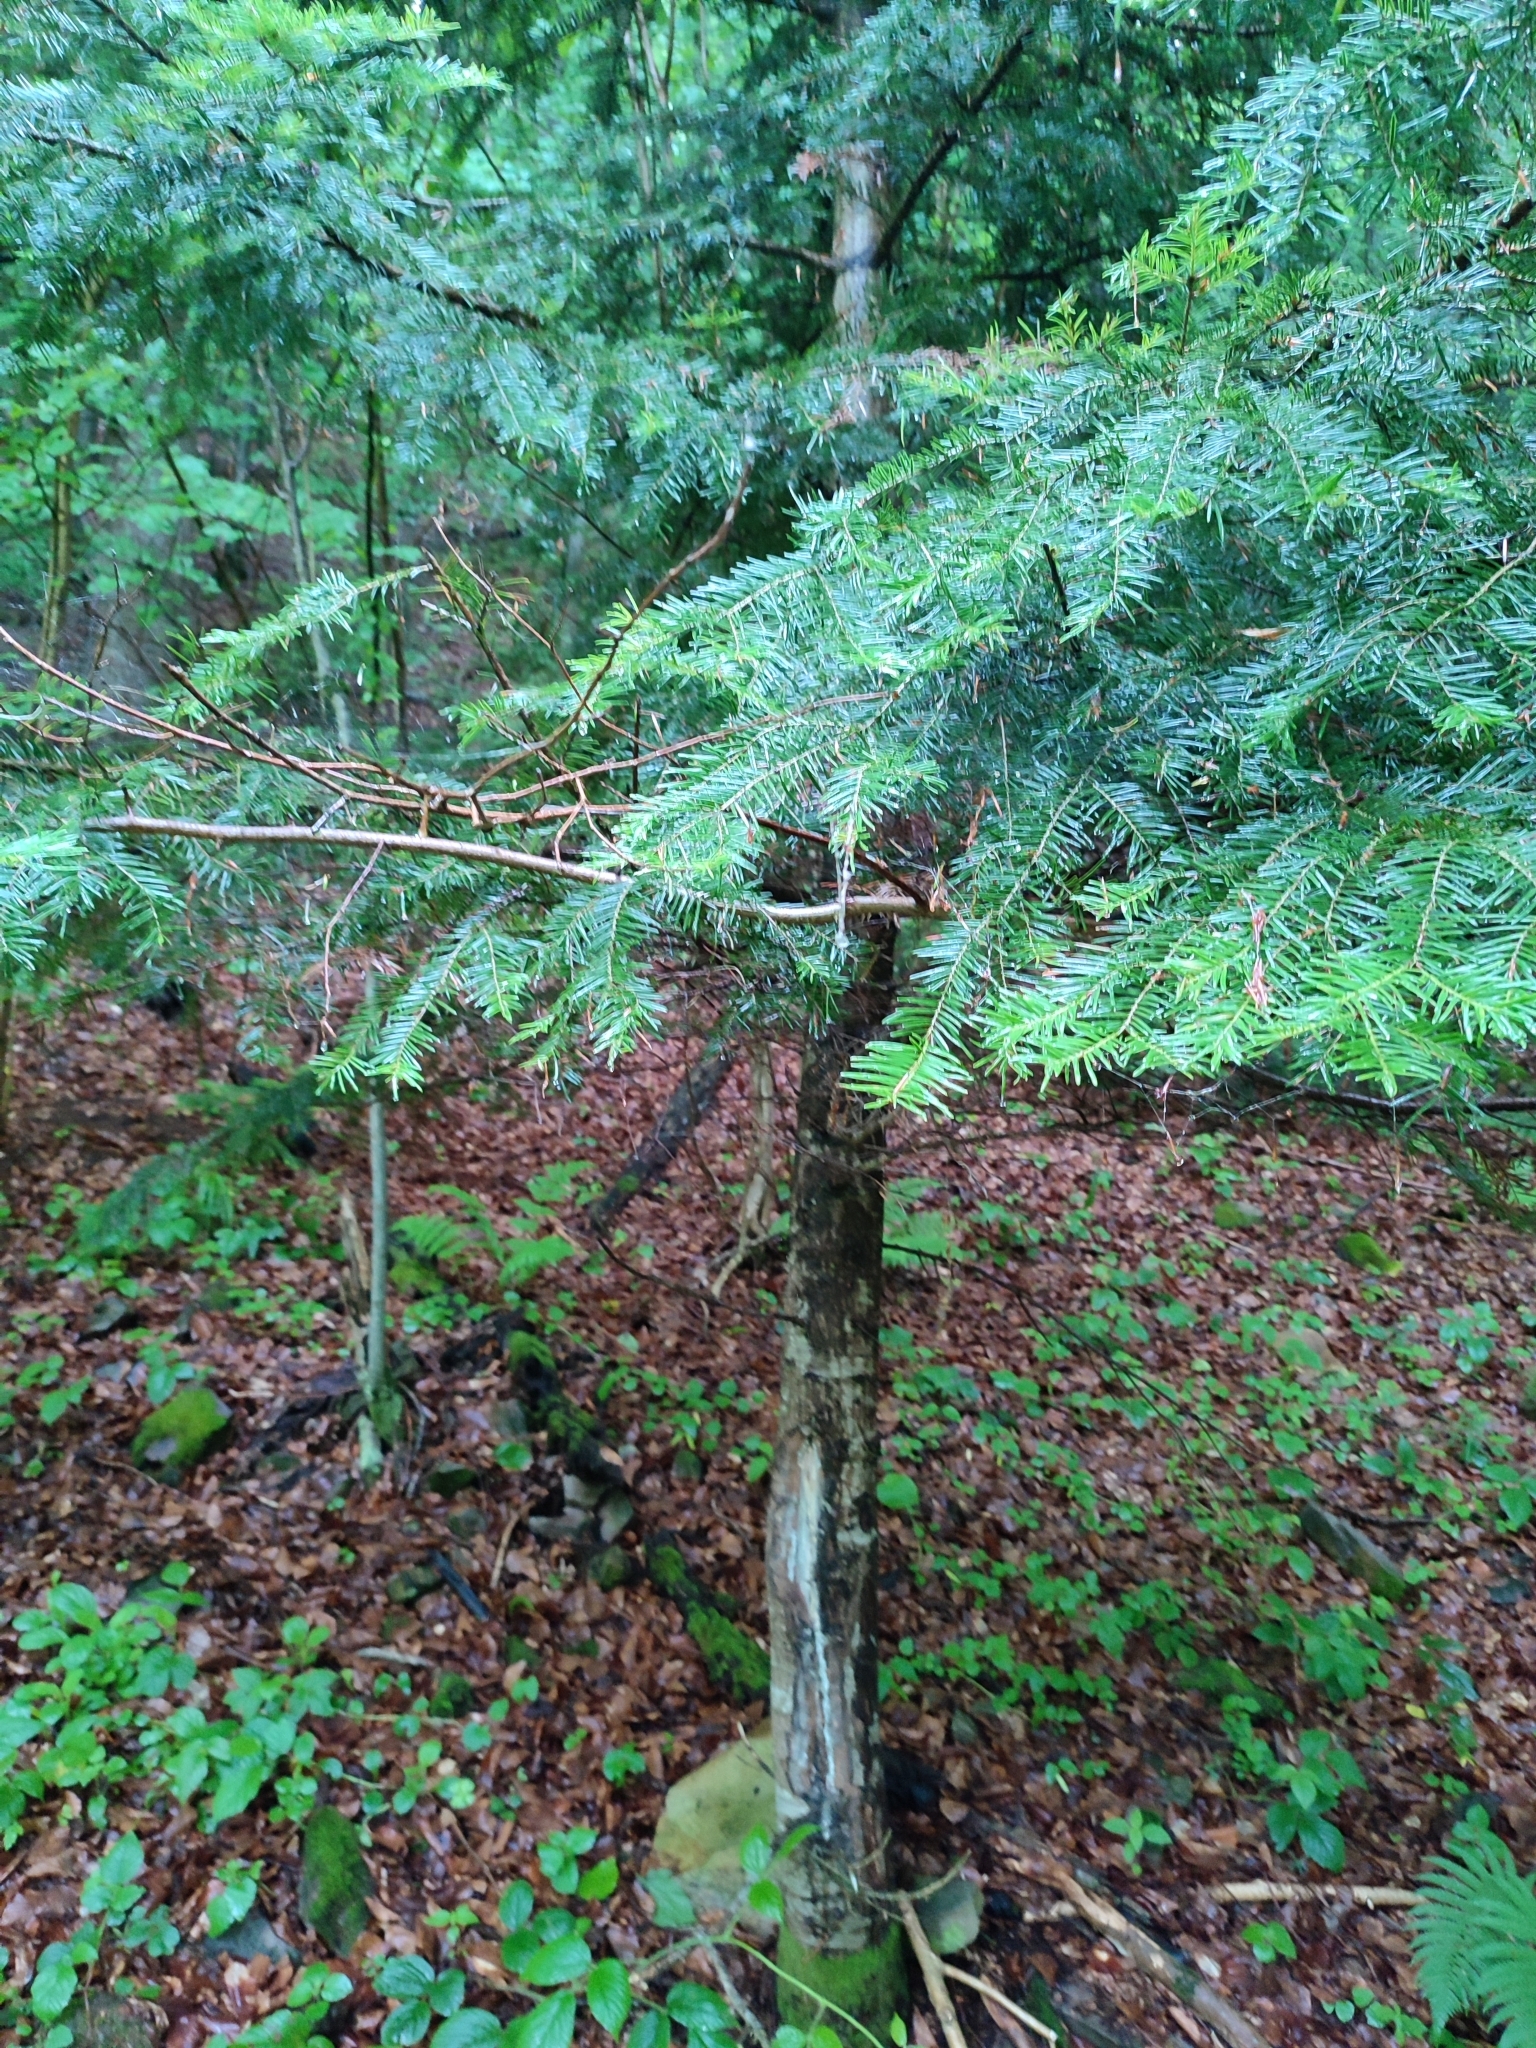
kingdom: Plantae
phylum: Tracheophyta
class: Pinopsida
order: Pinales
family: Pinaceae
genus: Abies
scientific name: Abies alba
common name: Silver fir
